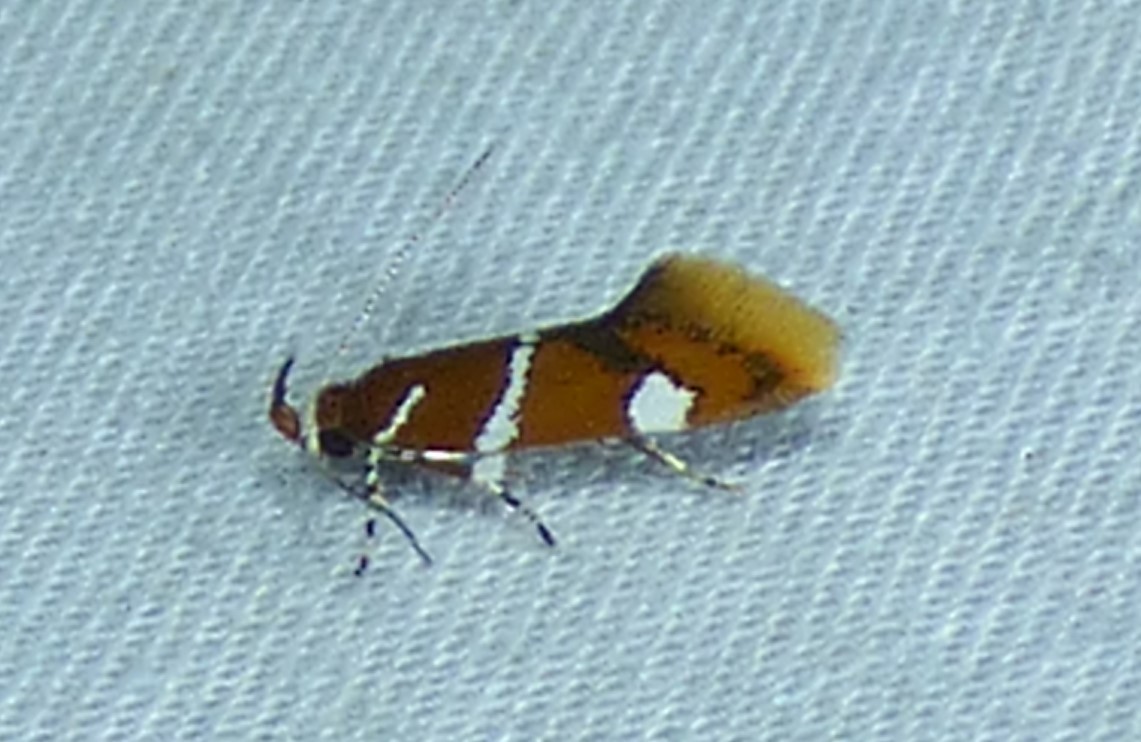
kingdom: Animalia
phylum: Arthropoda
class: Insecta
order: Lepidoptera
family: Oecophoridae
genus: Promalactis
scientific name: Promalactis suzukiella
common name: Moth
